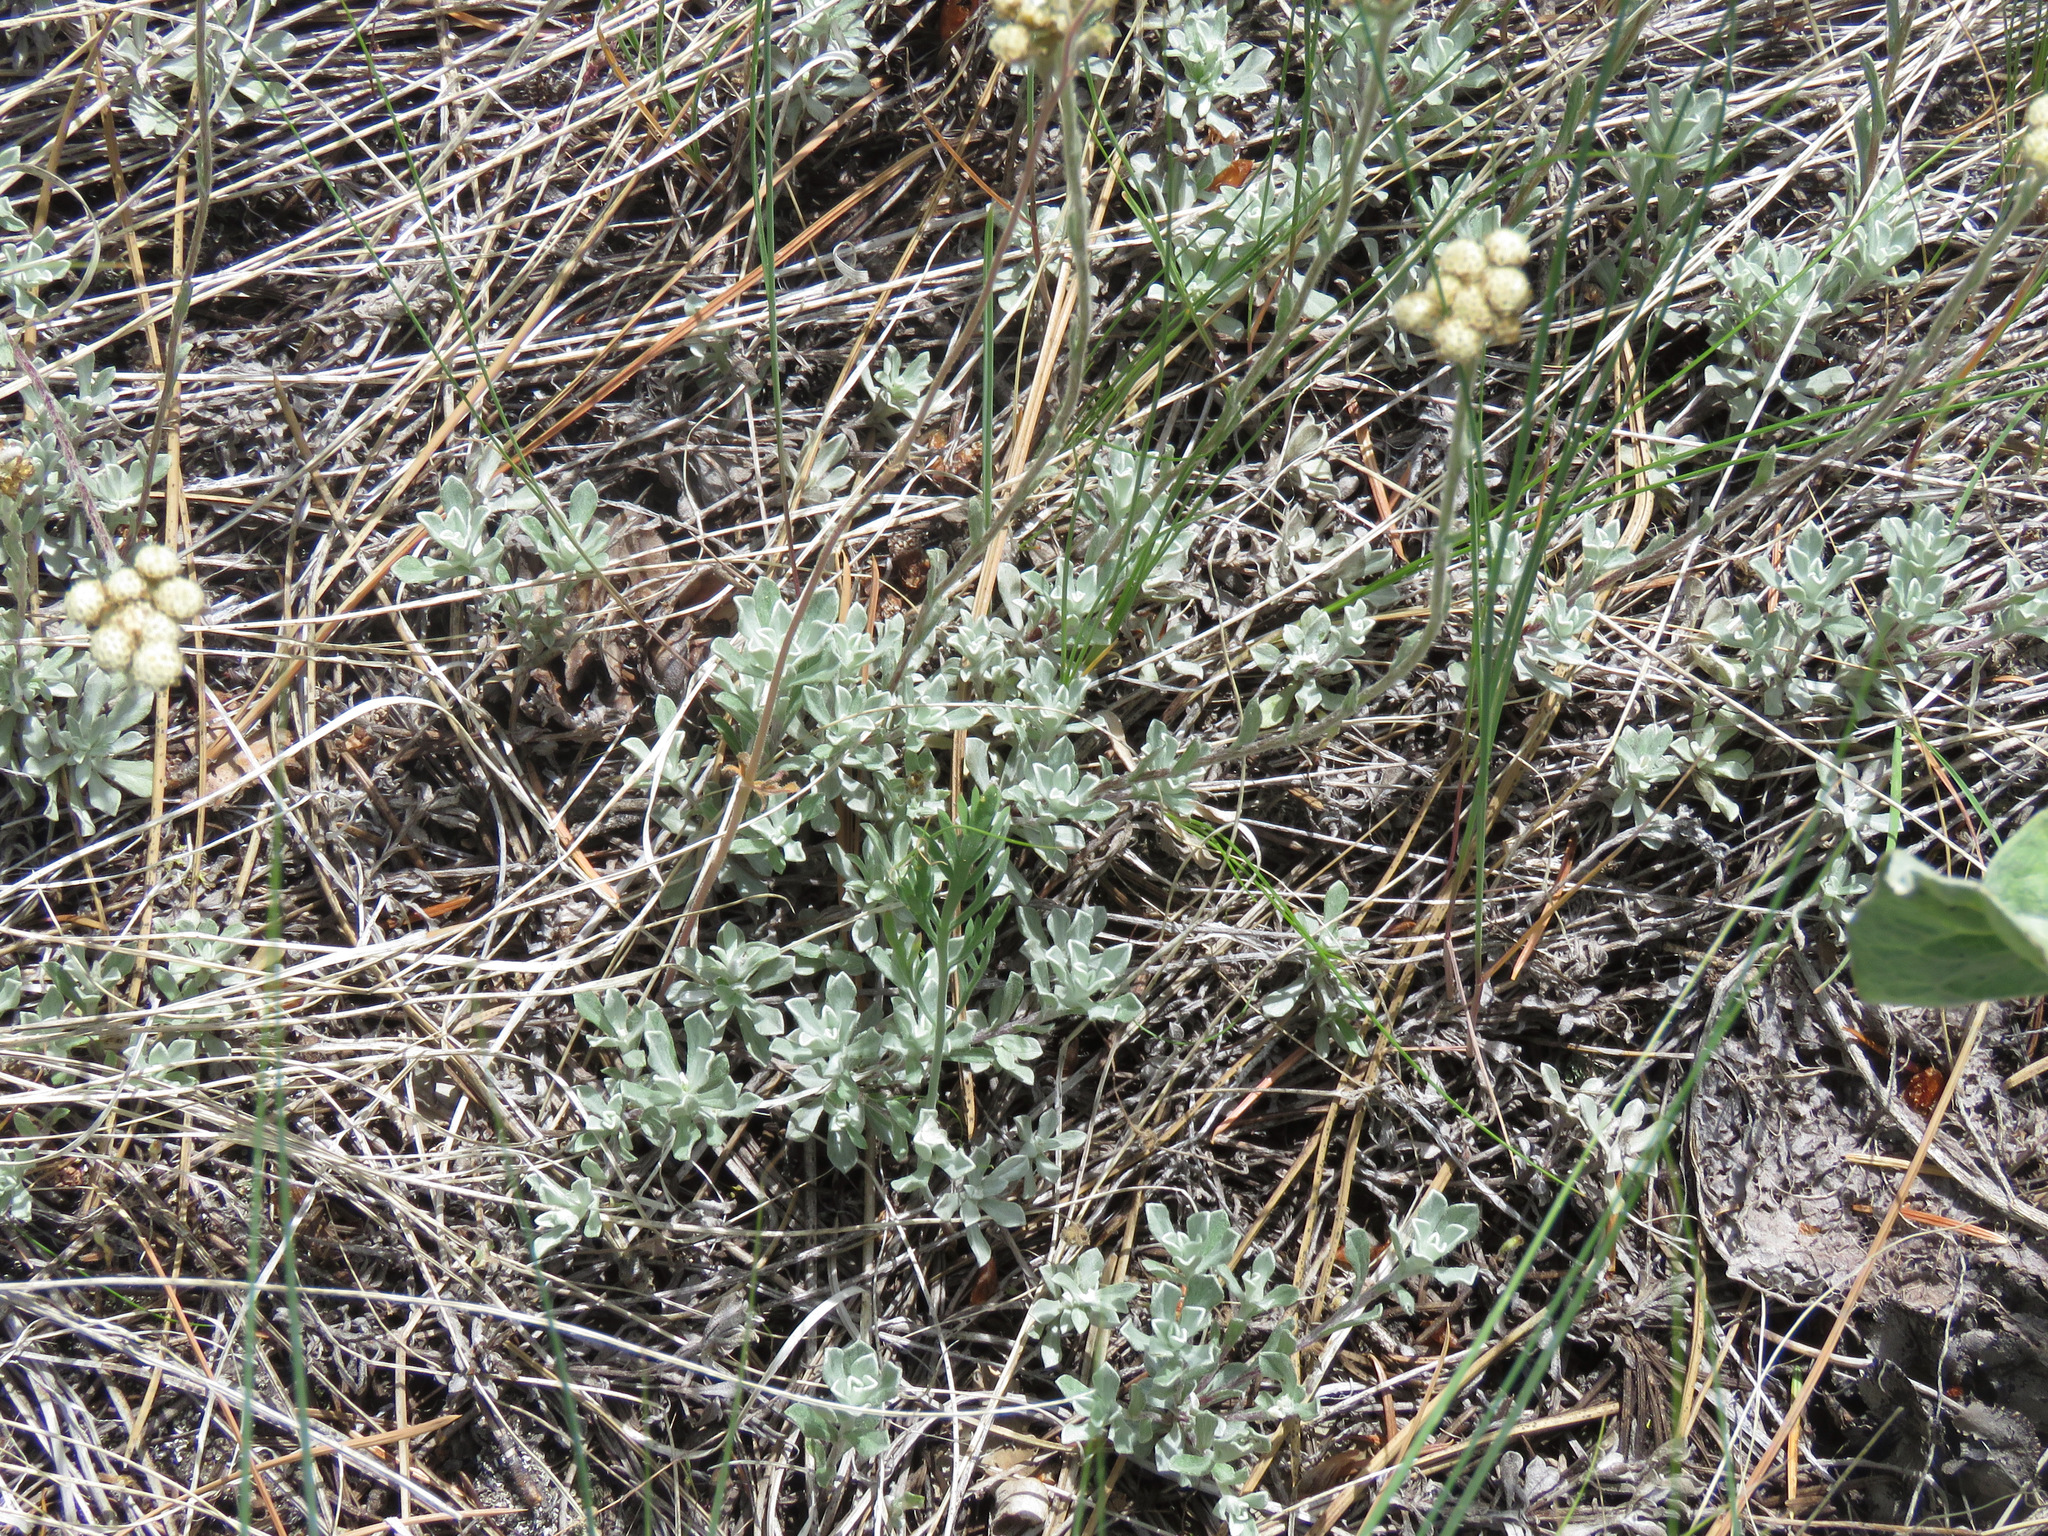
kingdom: Plantae
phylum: Tracheophyta
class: Magnoliopsida
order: Asterales
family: Asteraceae
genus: Antennaria
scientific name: Antennaria umbrinella
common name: Brown pussytoes
